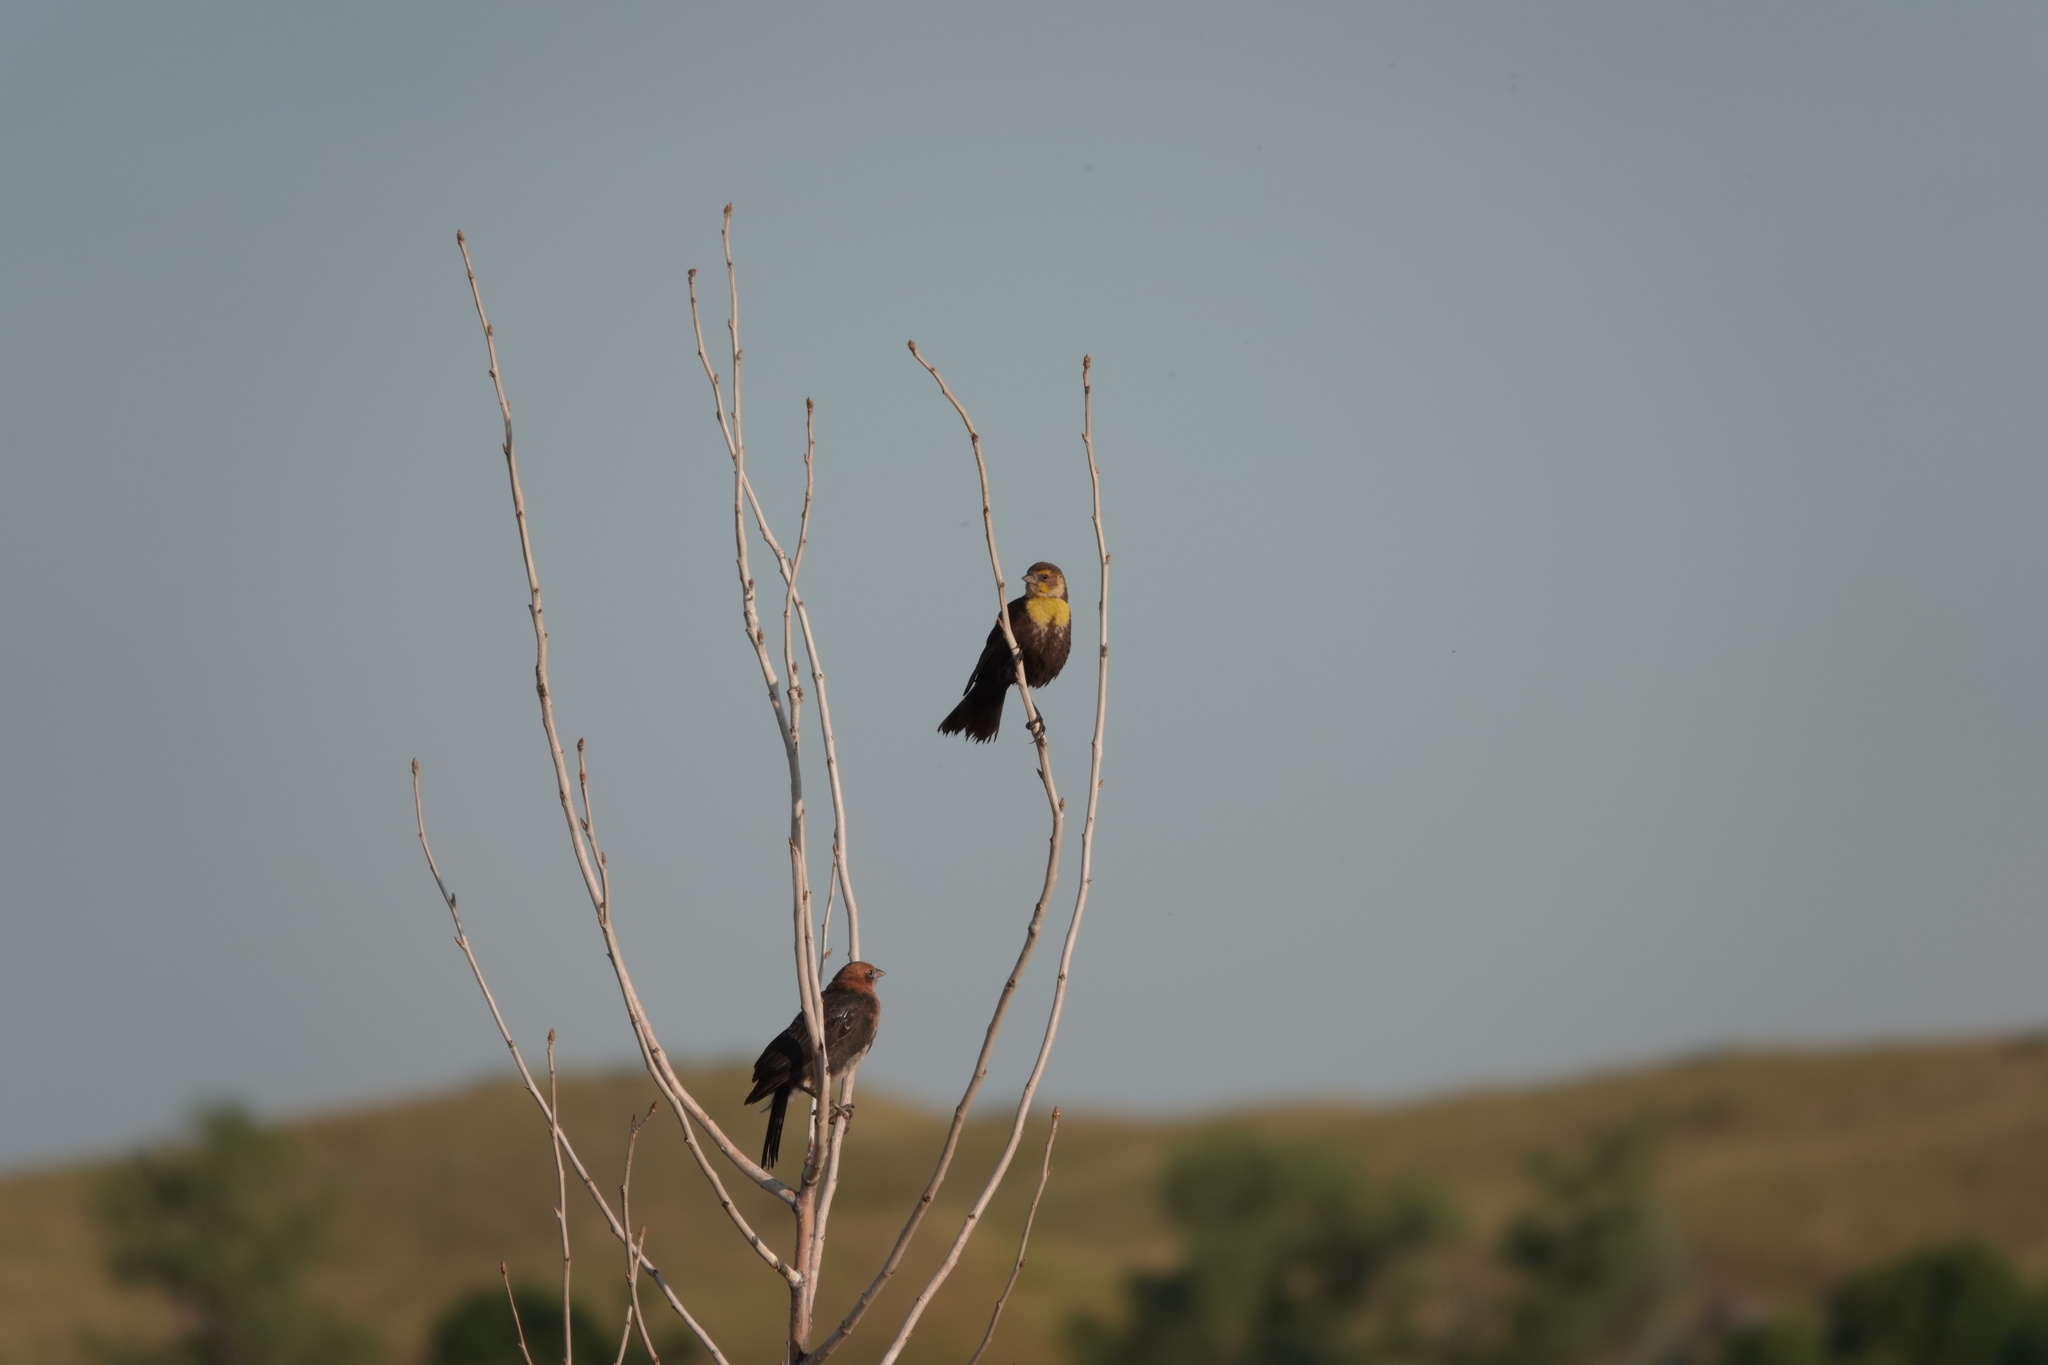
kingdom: Animalia
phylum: Chordata
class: Aves
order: Passeriformes
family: Icteridae
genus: Xanthocephalus
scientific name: Xanthocephalus xanthocephalus
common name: Yellow-headed blackbird
